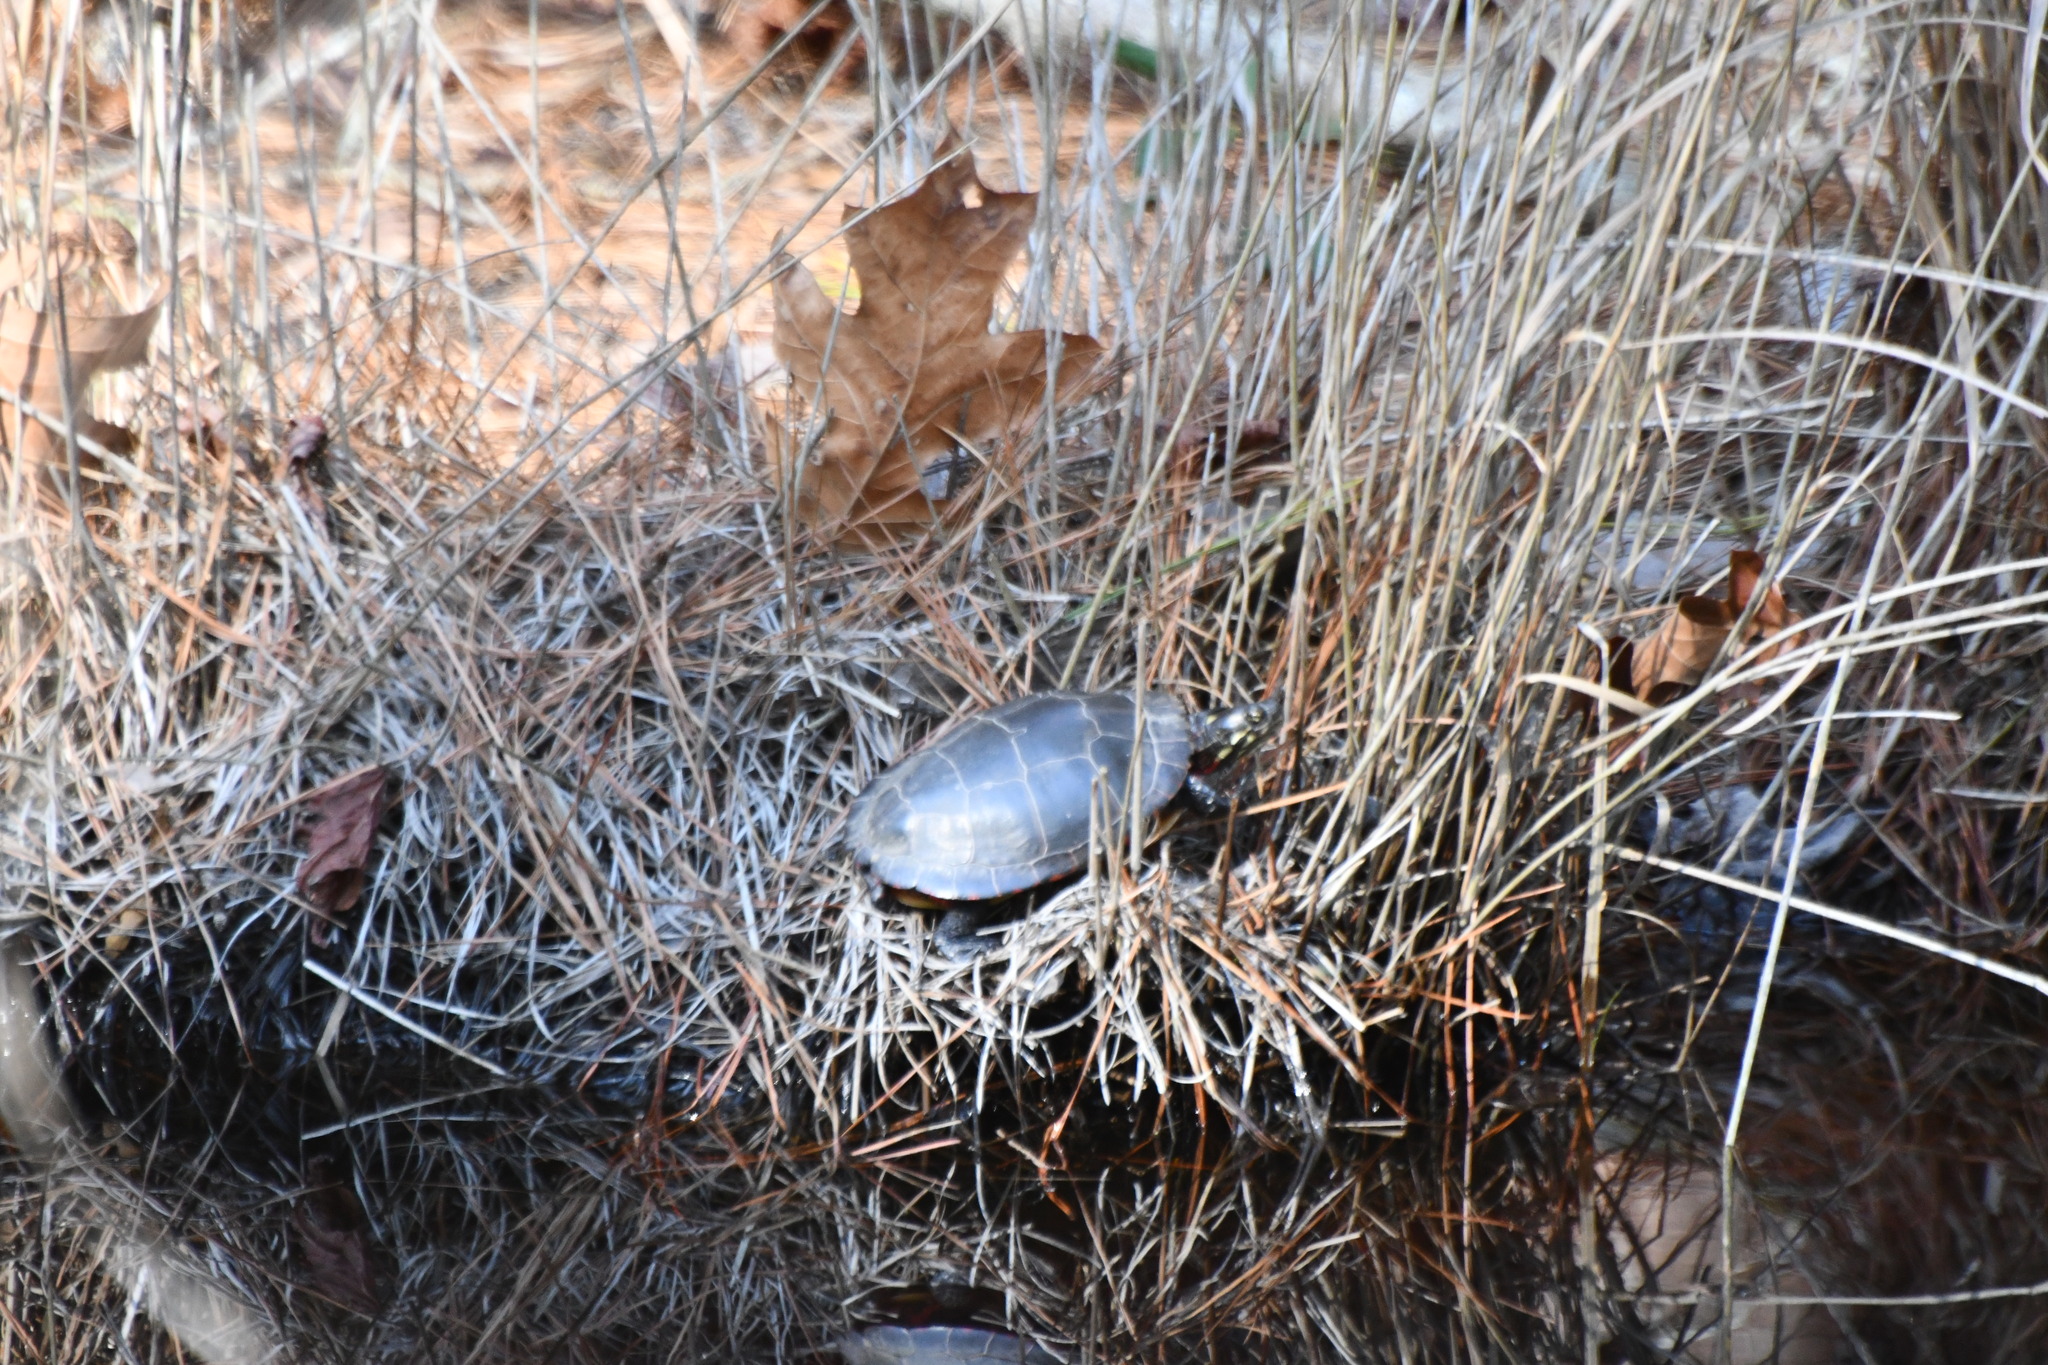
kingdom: Animalia
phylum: Chordata
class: Testudines
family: Emydidae
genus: Chrysemys
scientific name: Chrysemys picta
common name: Painted turtle
